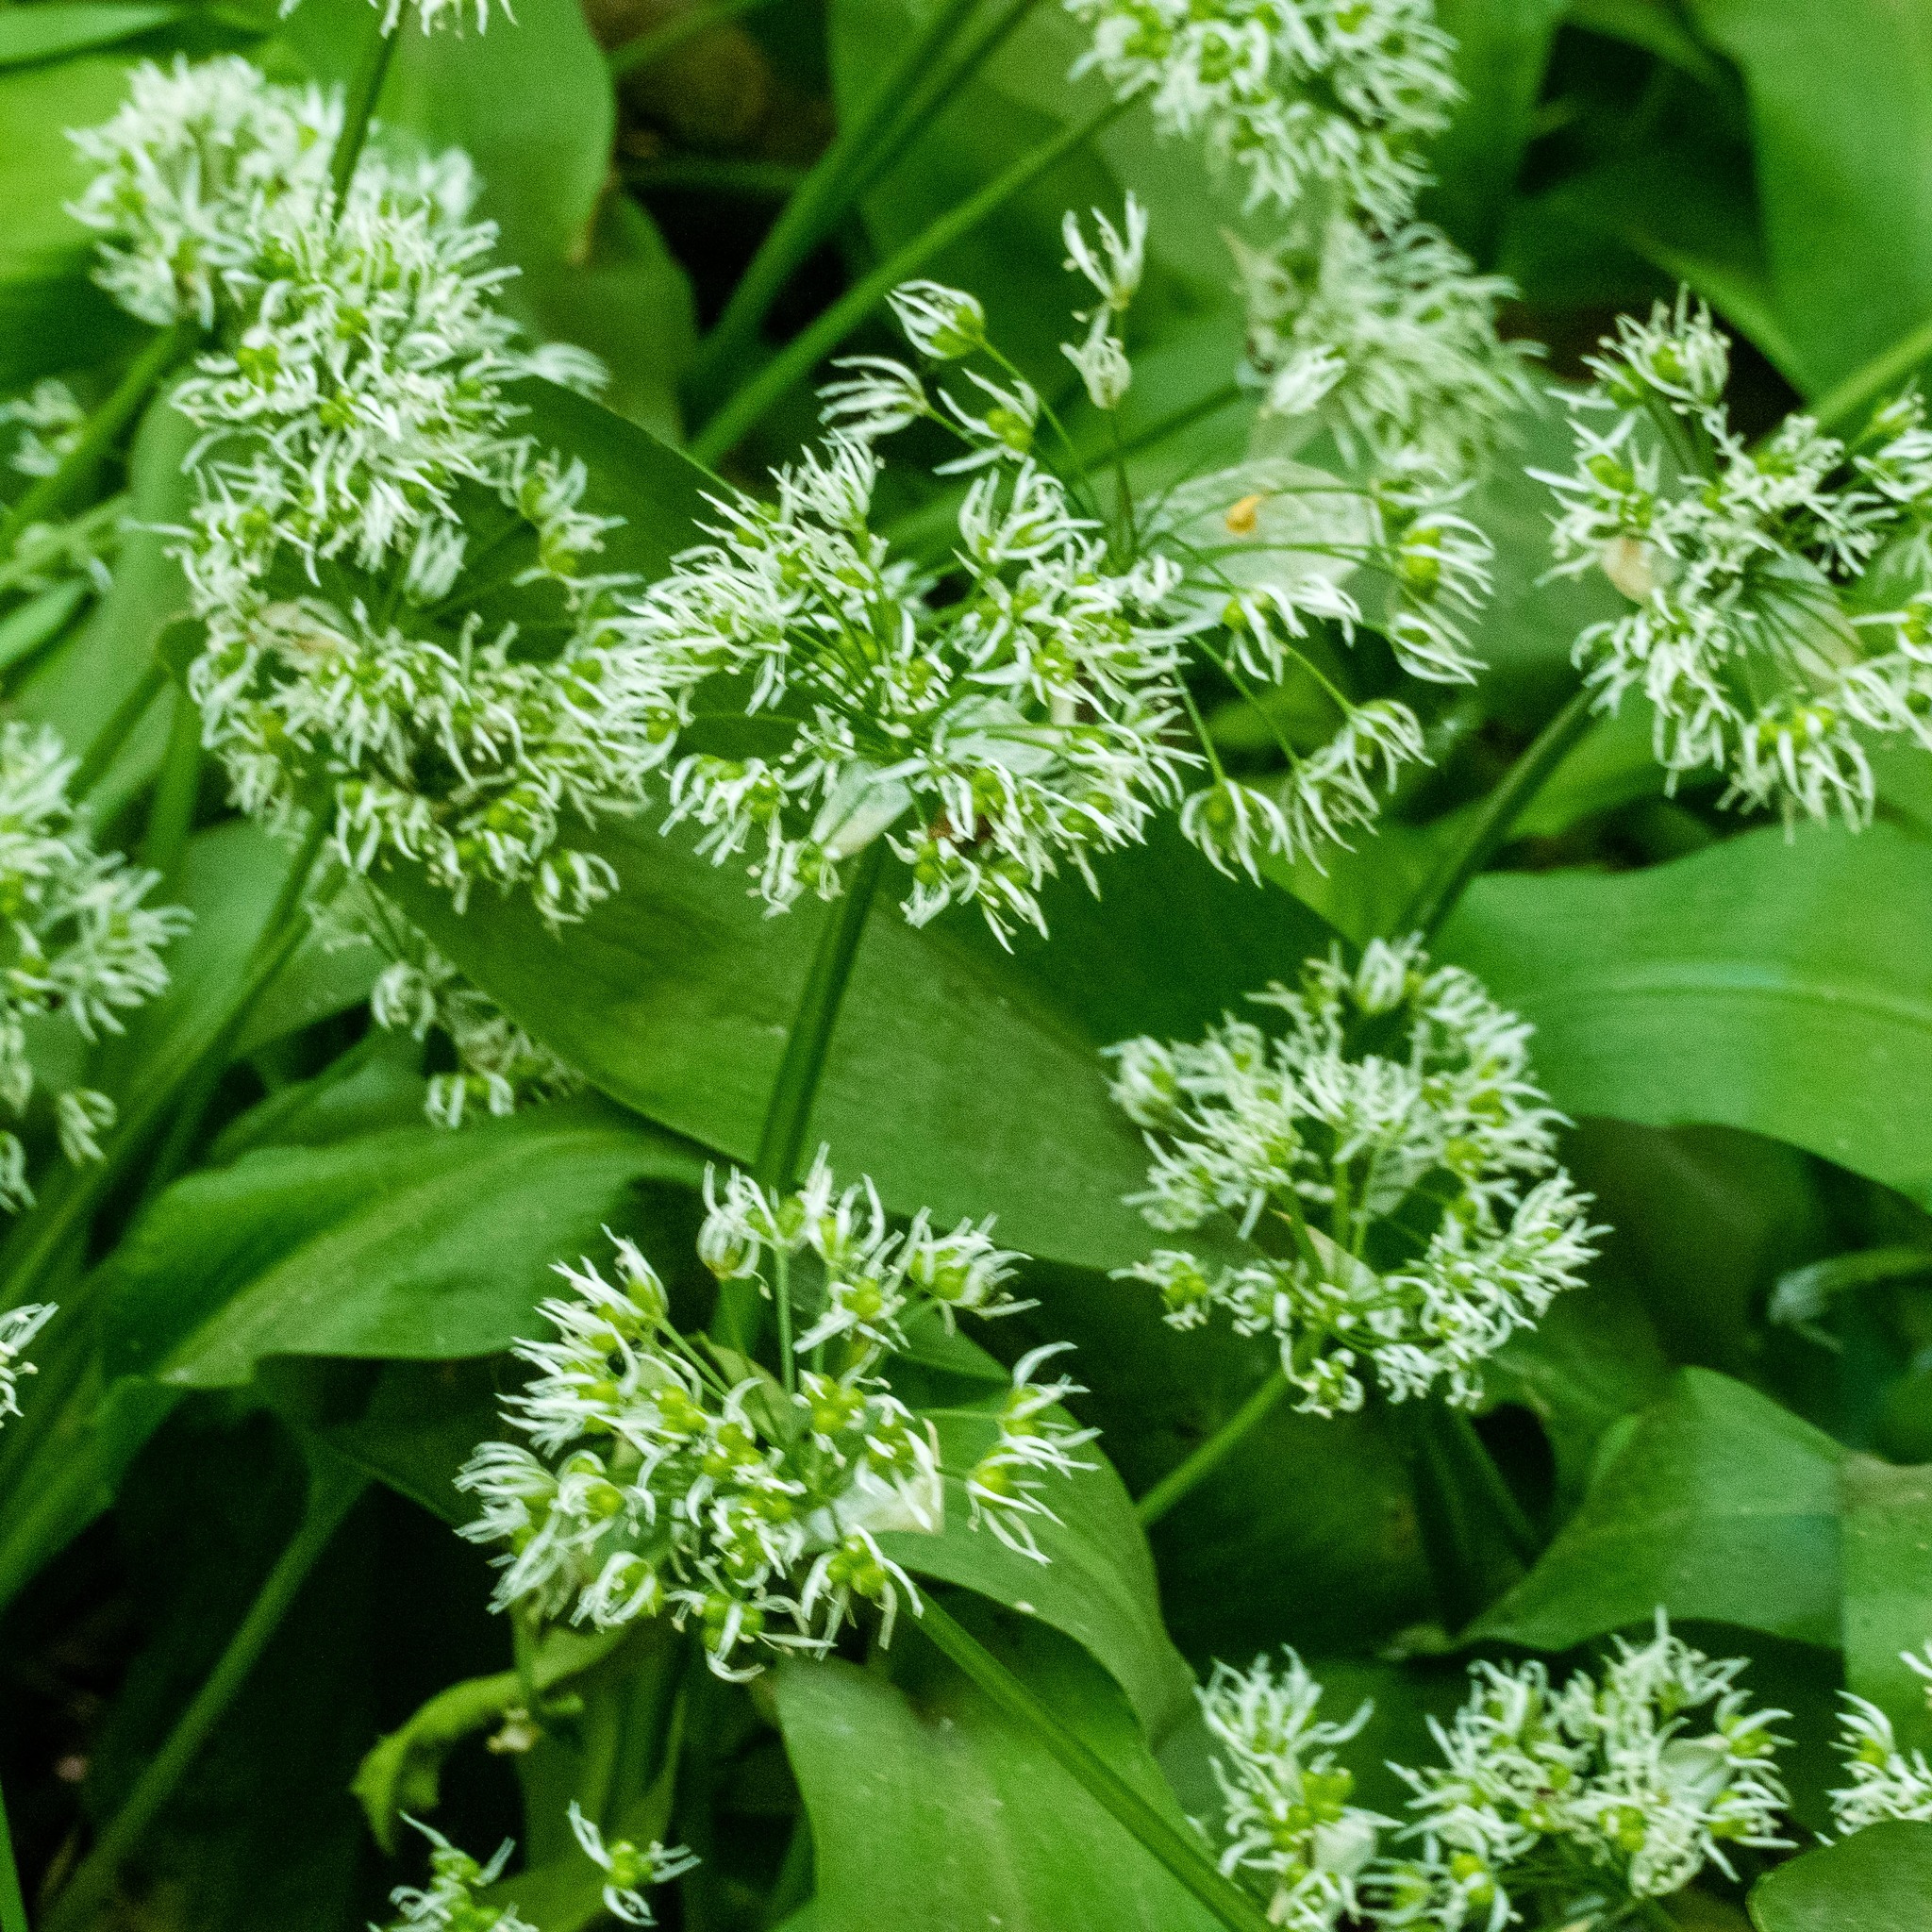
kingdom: Plantae
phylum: Tracheophyta
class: Liliopsida
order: Asparagales
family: Amaryllidaceae
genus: Allium
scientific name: Allium ursinum
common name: Ramsons
